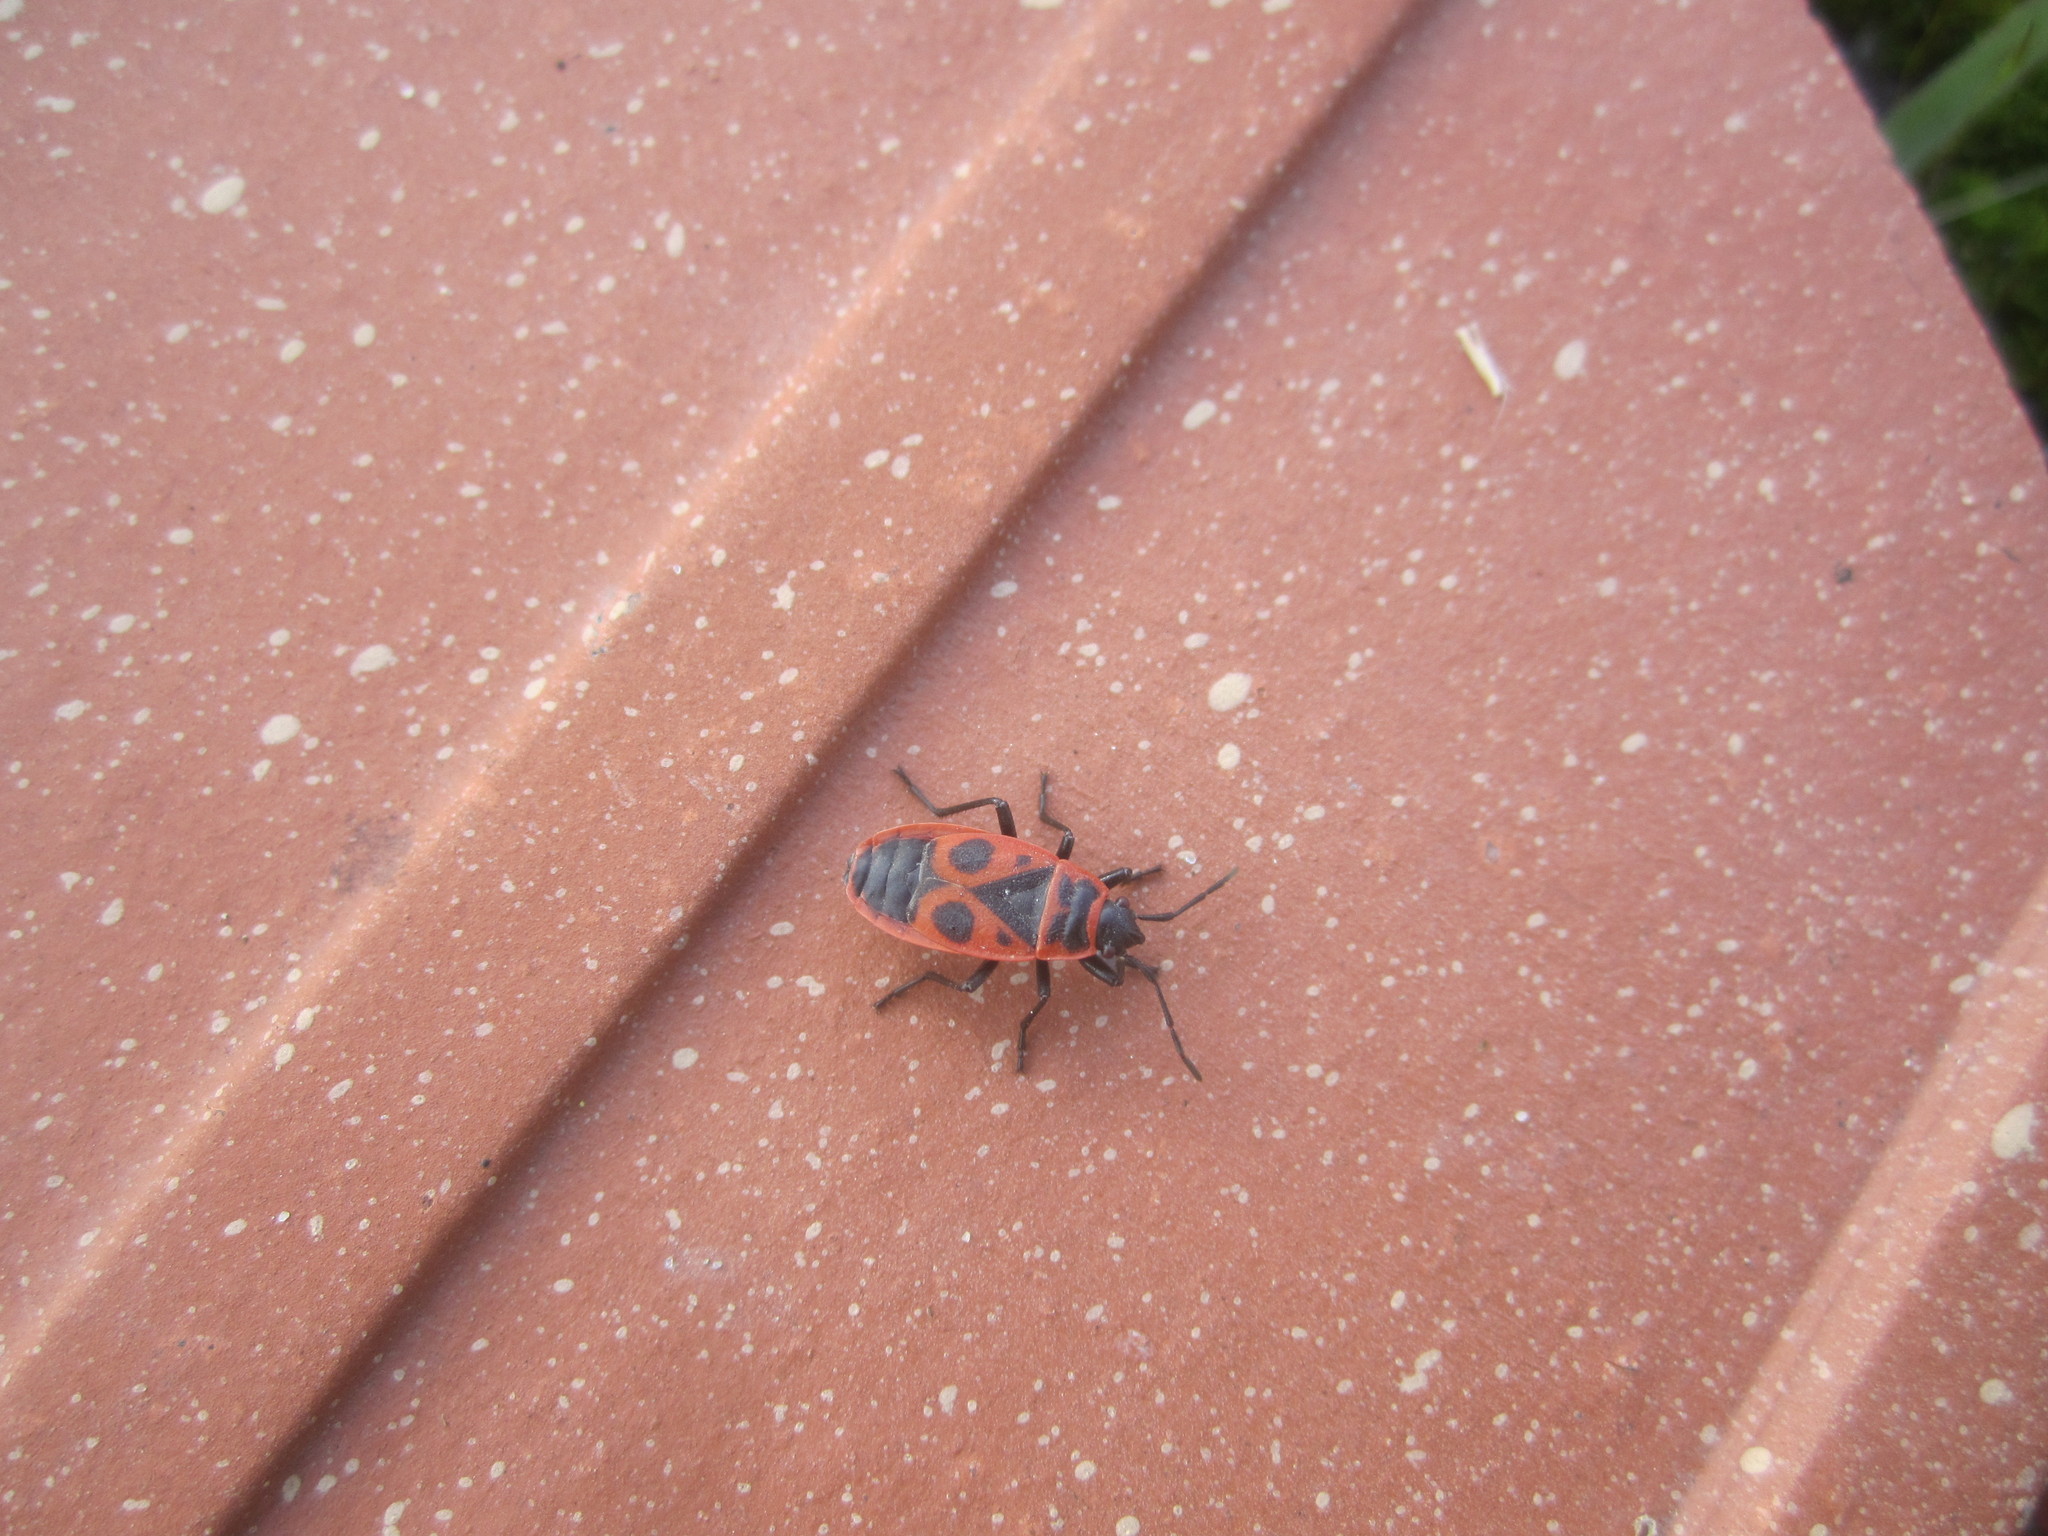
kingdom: Animalia
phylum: Arthropoda
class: Insecta
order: Hemiptera
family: Pyrrhocoridae
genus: Pyrrhocoris
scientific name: Pyrrhocoris apterus
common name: Firebug
